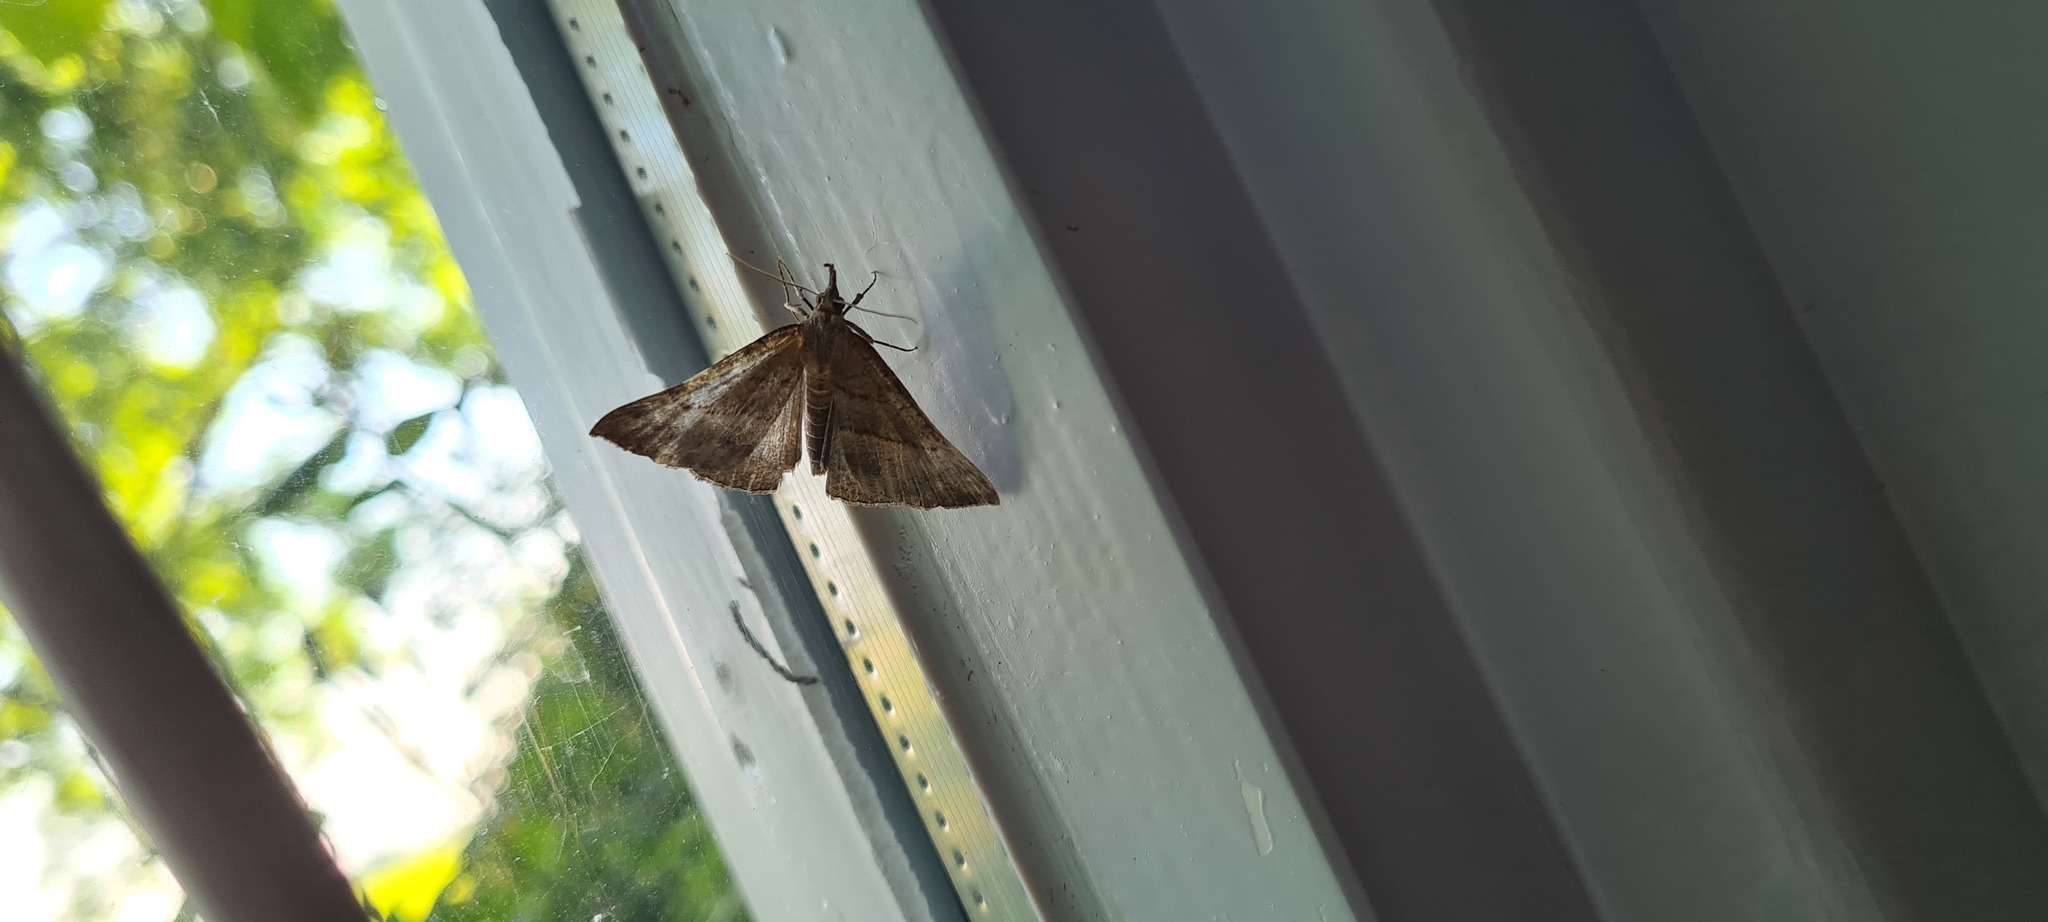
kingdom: Animalia
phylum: Arthropoda
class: Insecta
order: Lepidoptera
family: Erebidae
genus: Hypena
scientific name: Hypena proboscidalis
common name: Snout
